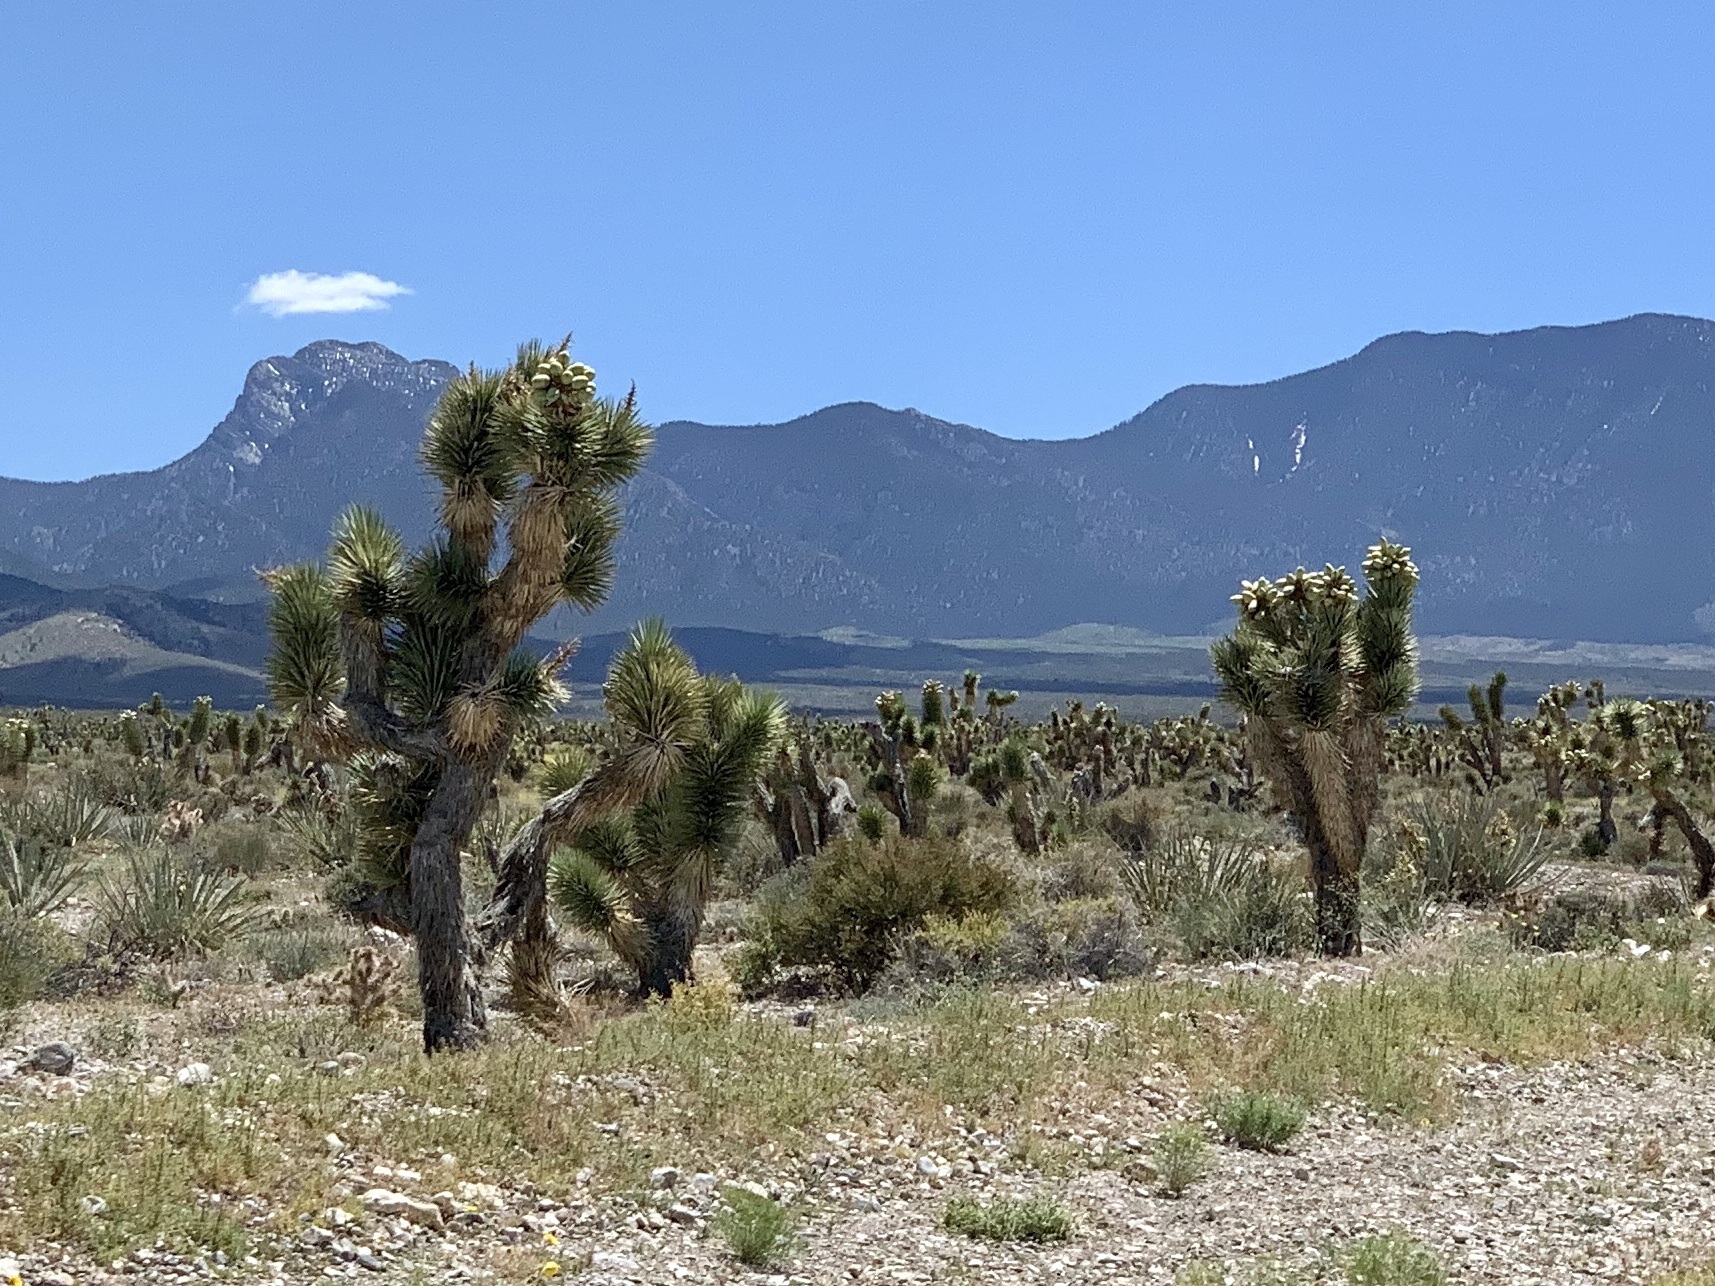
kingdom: Plantae
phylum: Tracheophyta
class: Liliopsida
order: Asparagales
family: Asparagaceae
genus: Yucca
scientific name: Yucca brevifolia
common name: Joshua tree
